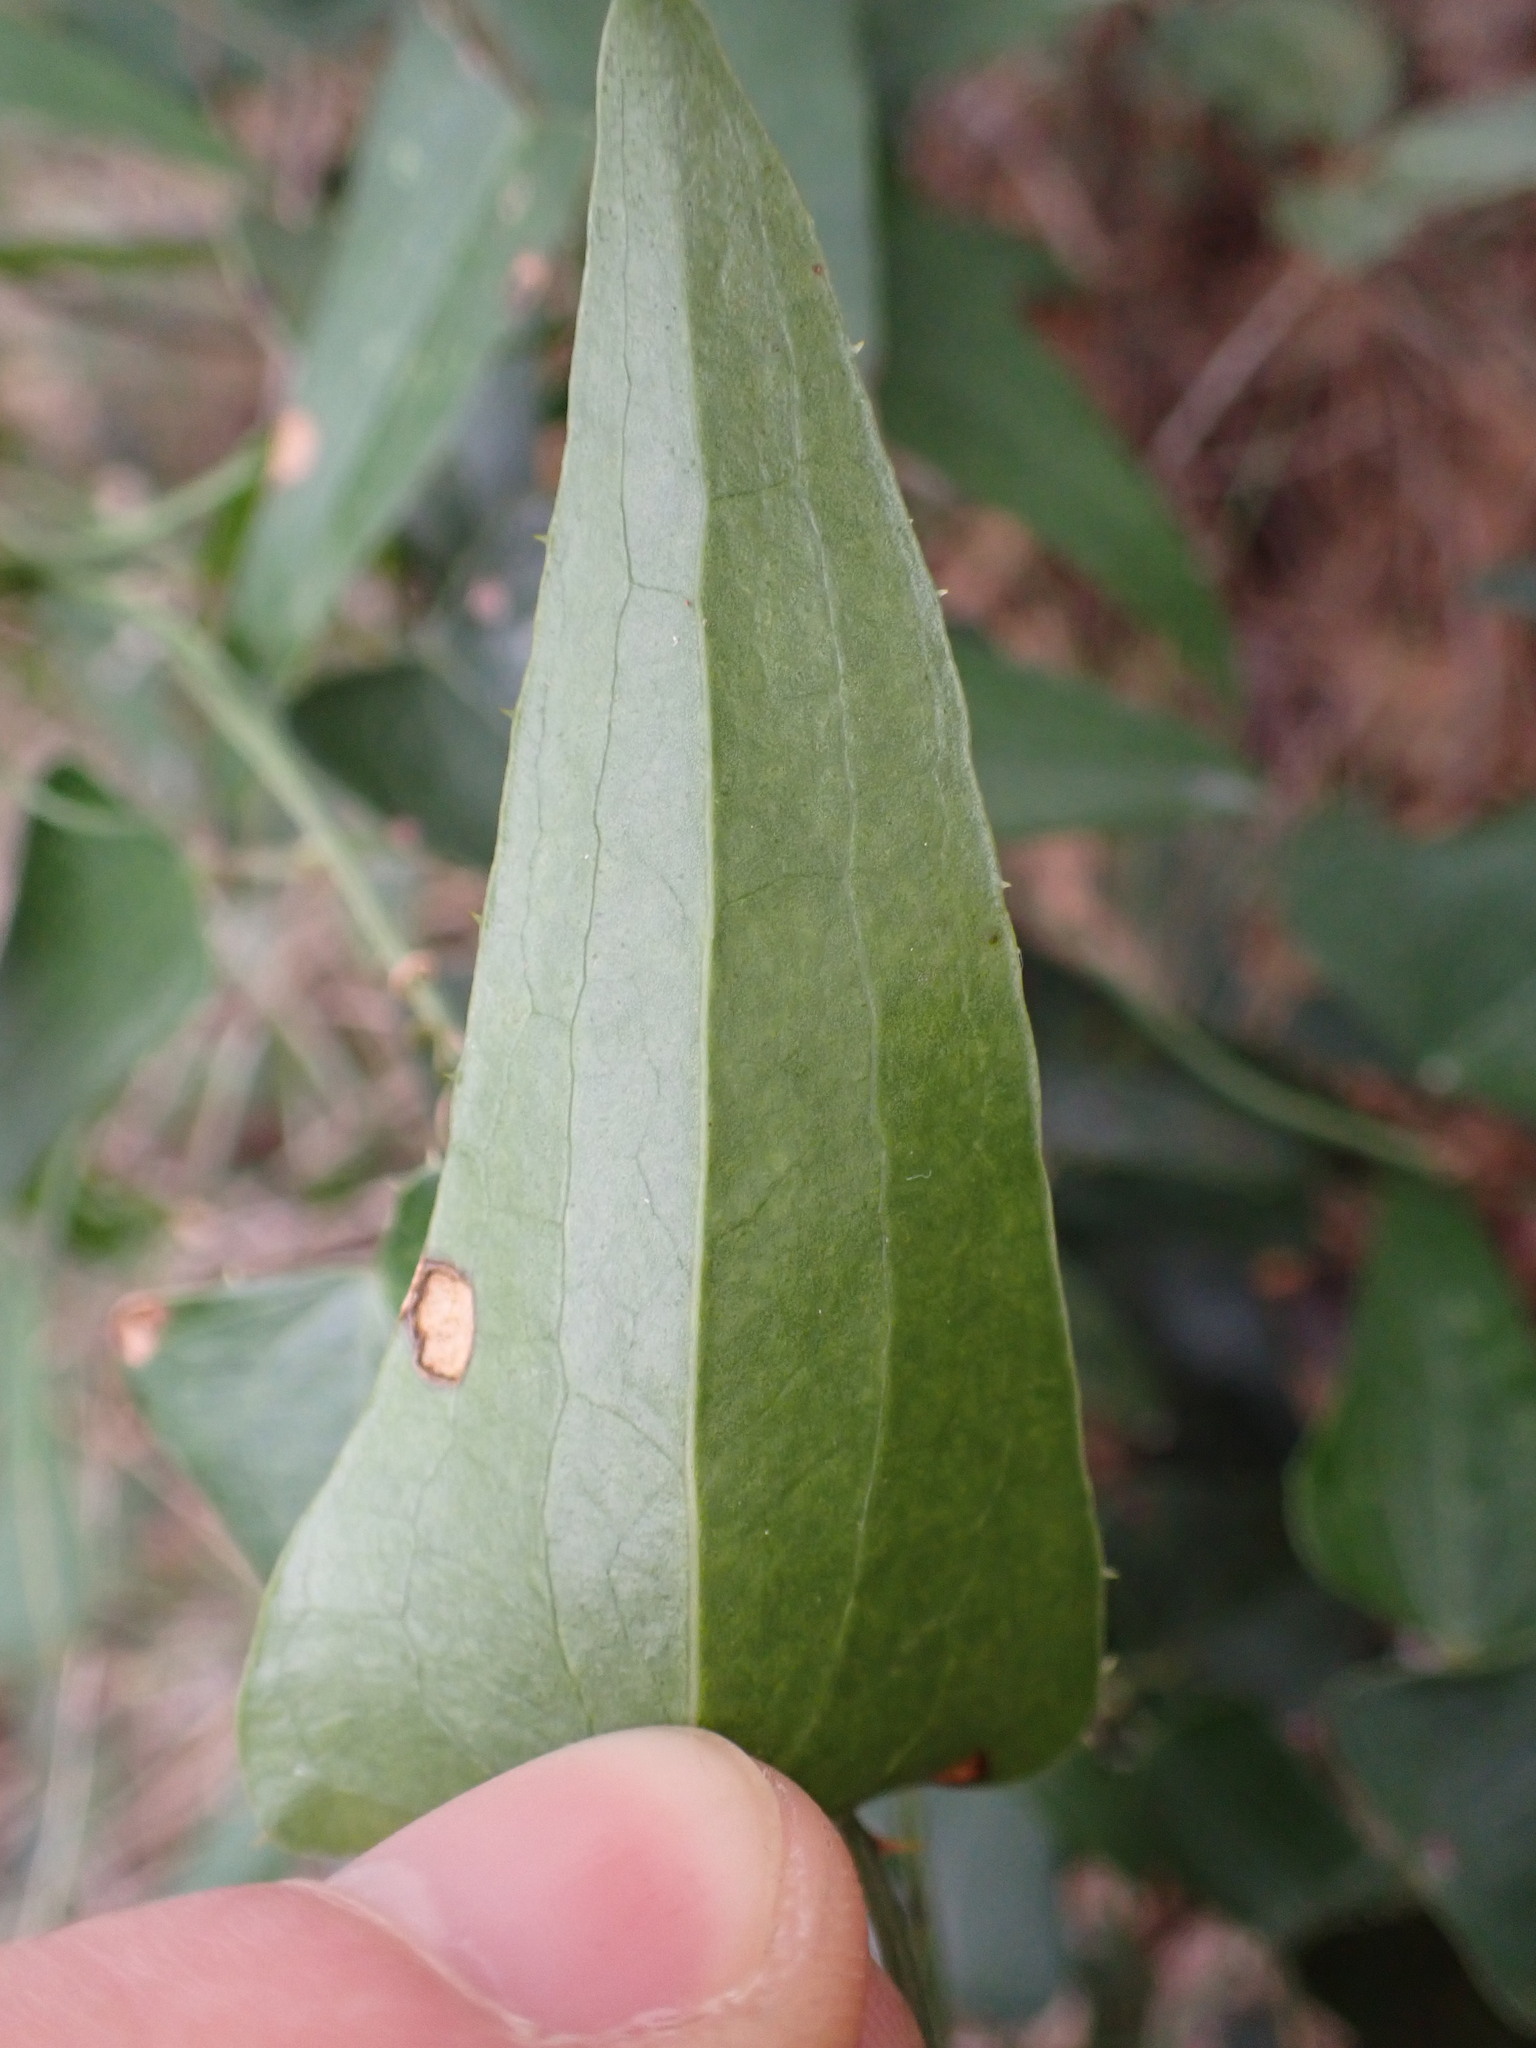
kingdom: Plantae
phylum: Tracheophyta
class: Liliopsida
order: Liliales
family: Smilacaceae
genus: Smilax
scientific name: Smilax aspera
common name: Common smilax
